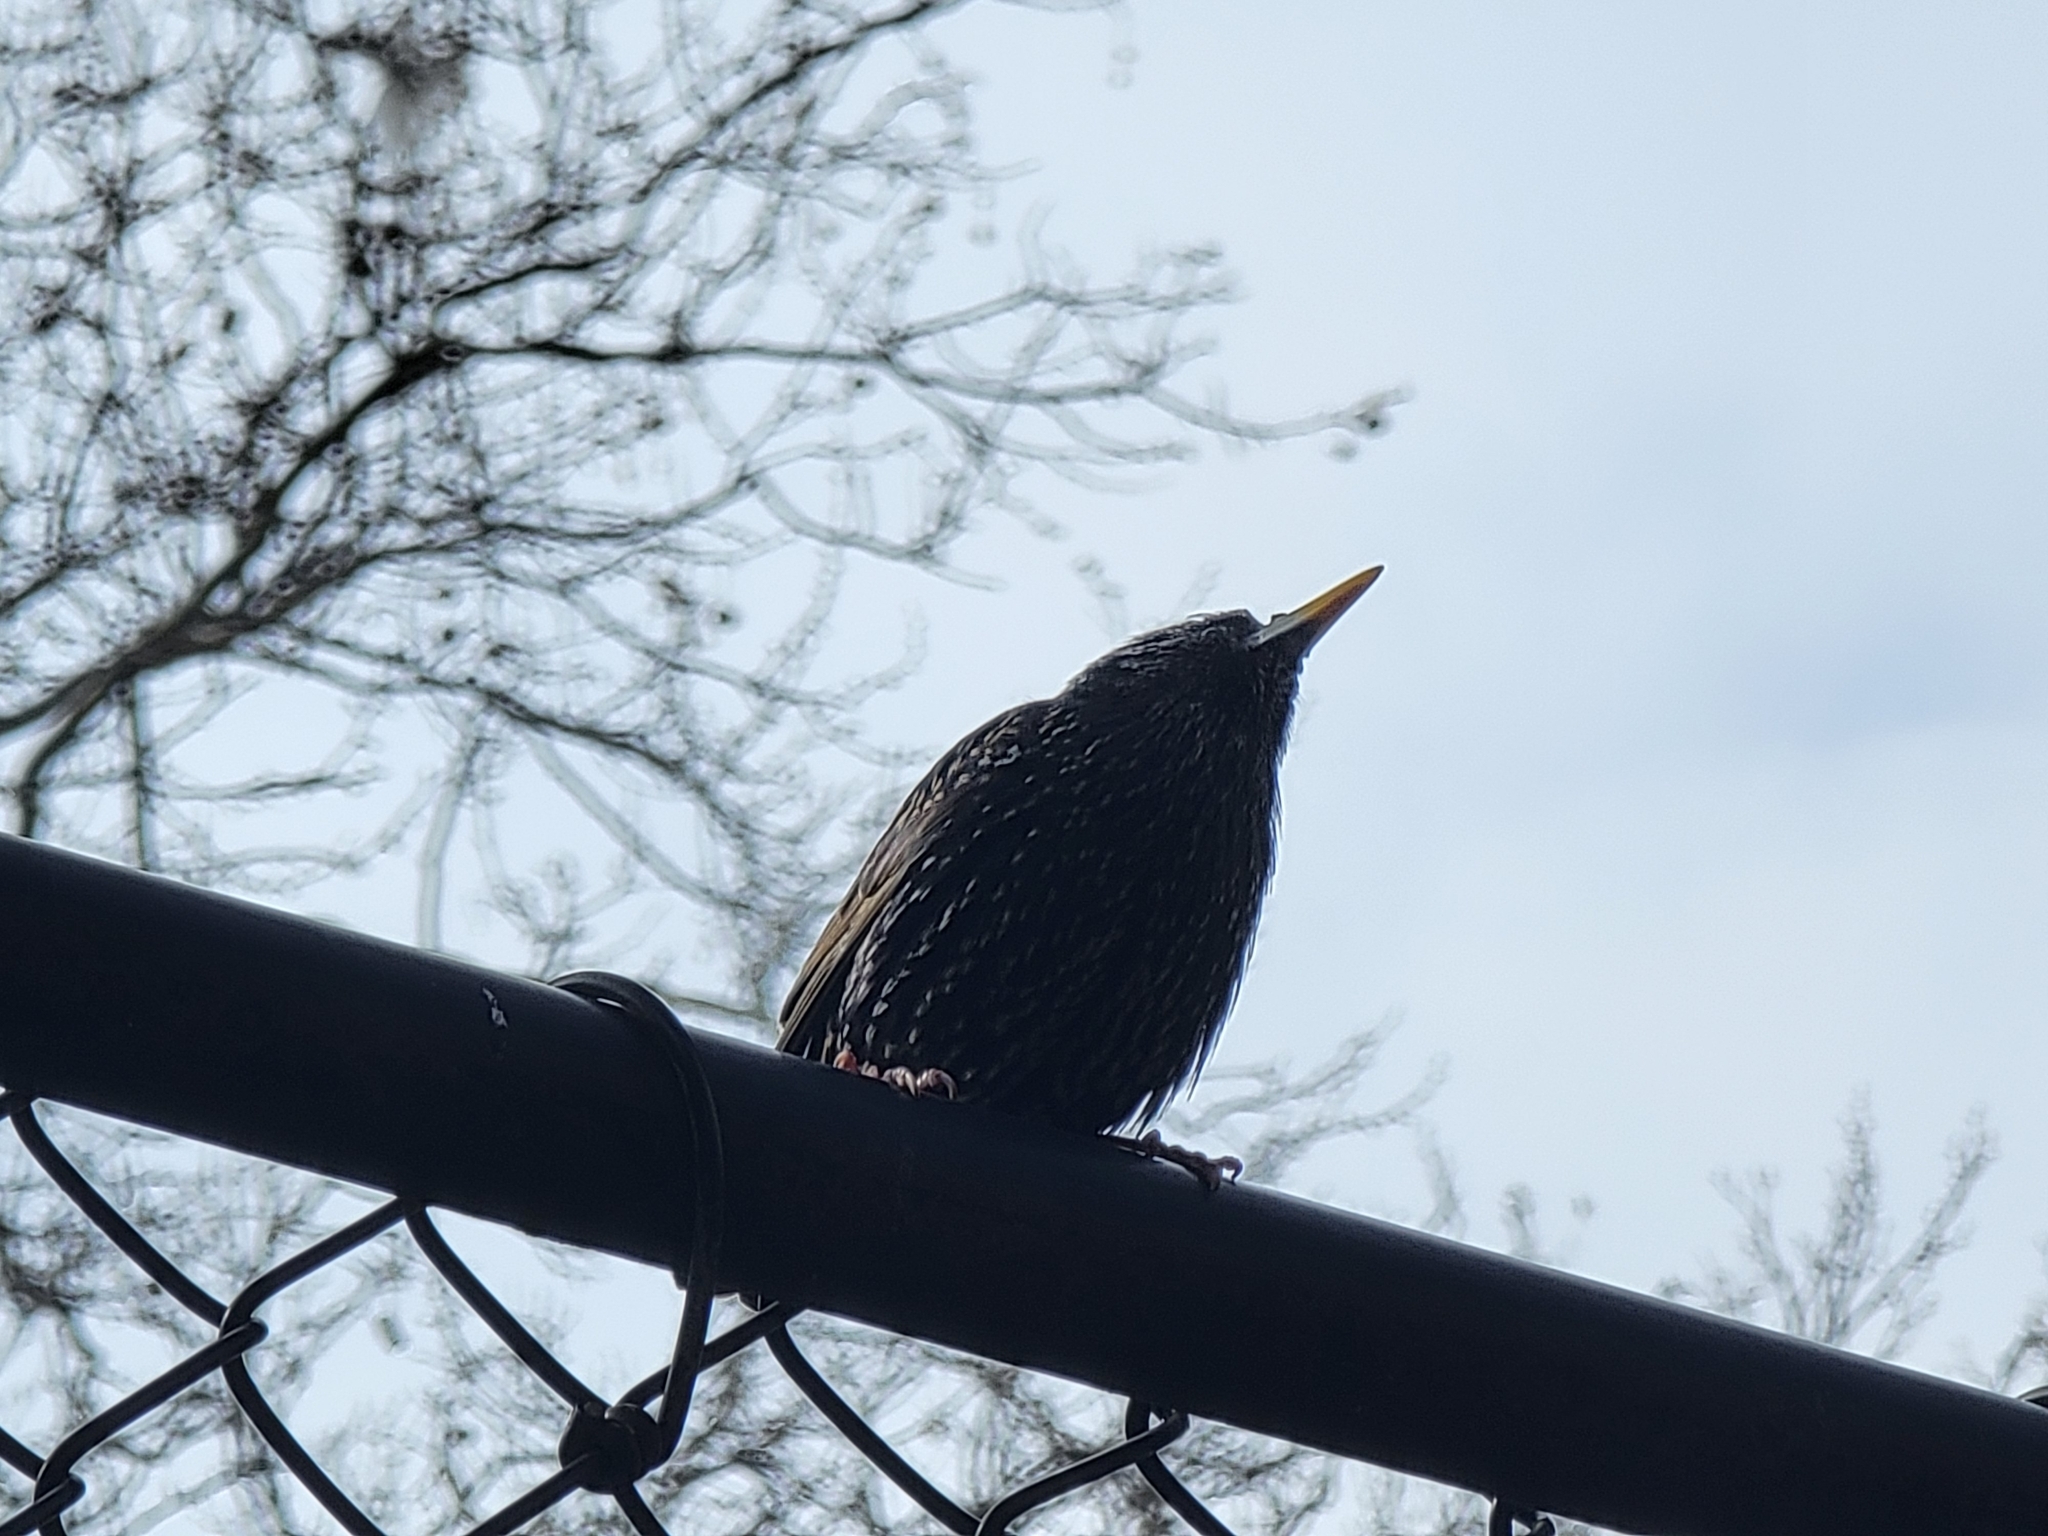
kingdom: Animalia
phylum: Chordata
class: Aves
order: Passeriformes
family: Sturnidae
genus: Sturnus
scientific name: Sturnus vulgaris
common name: Common starling
